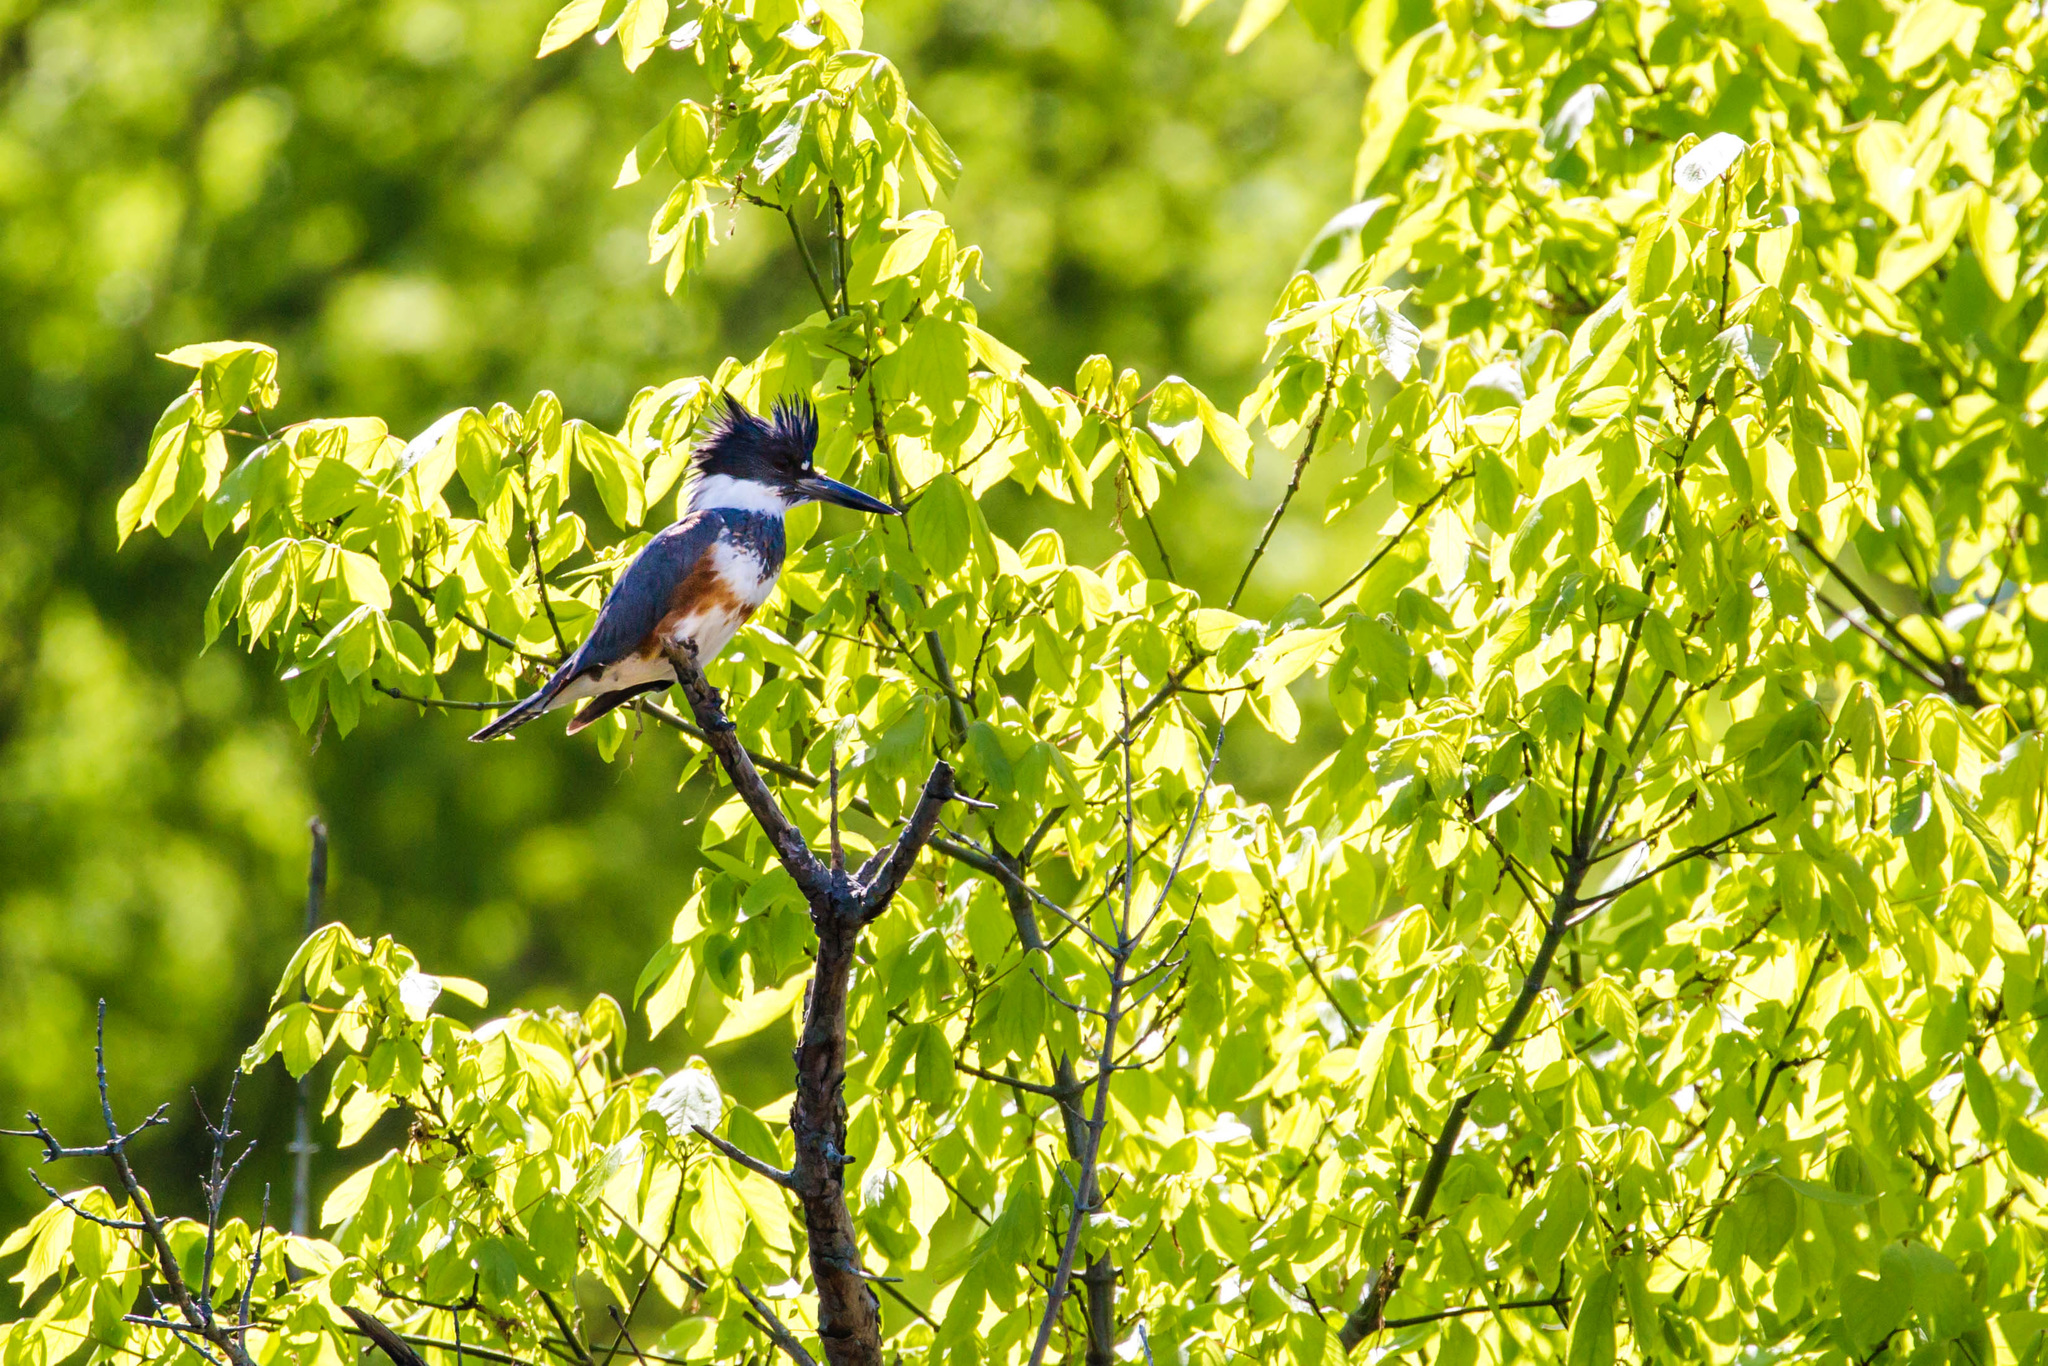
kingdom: Animalia
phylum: Chordata
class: Aves
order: Coraciiformes
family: Alcedinidae
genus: Megaceryle
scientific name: Megaceryle alcyon
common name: Belted kingfisher
